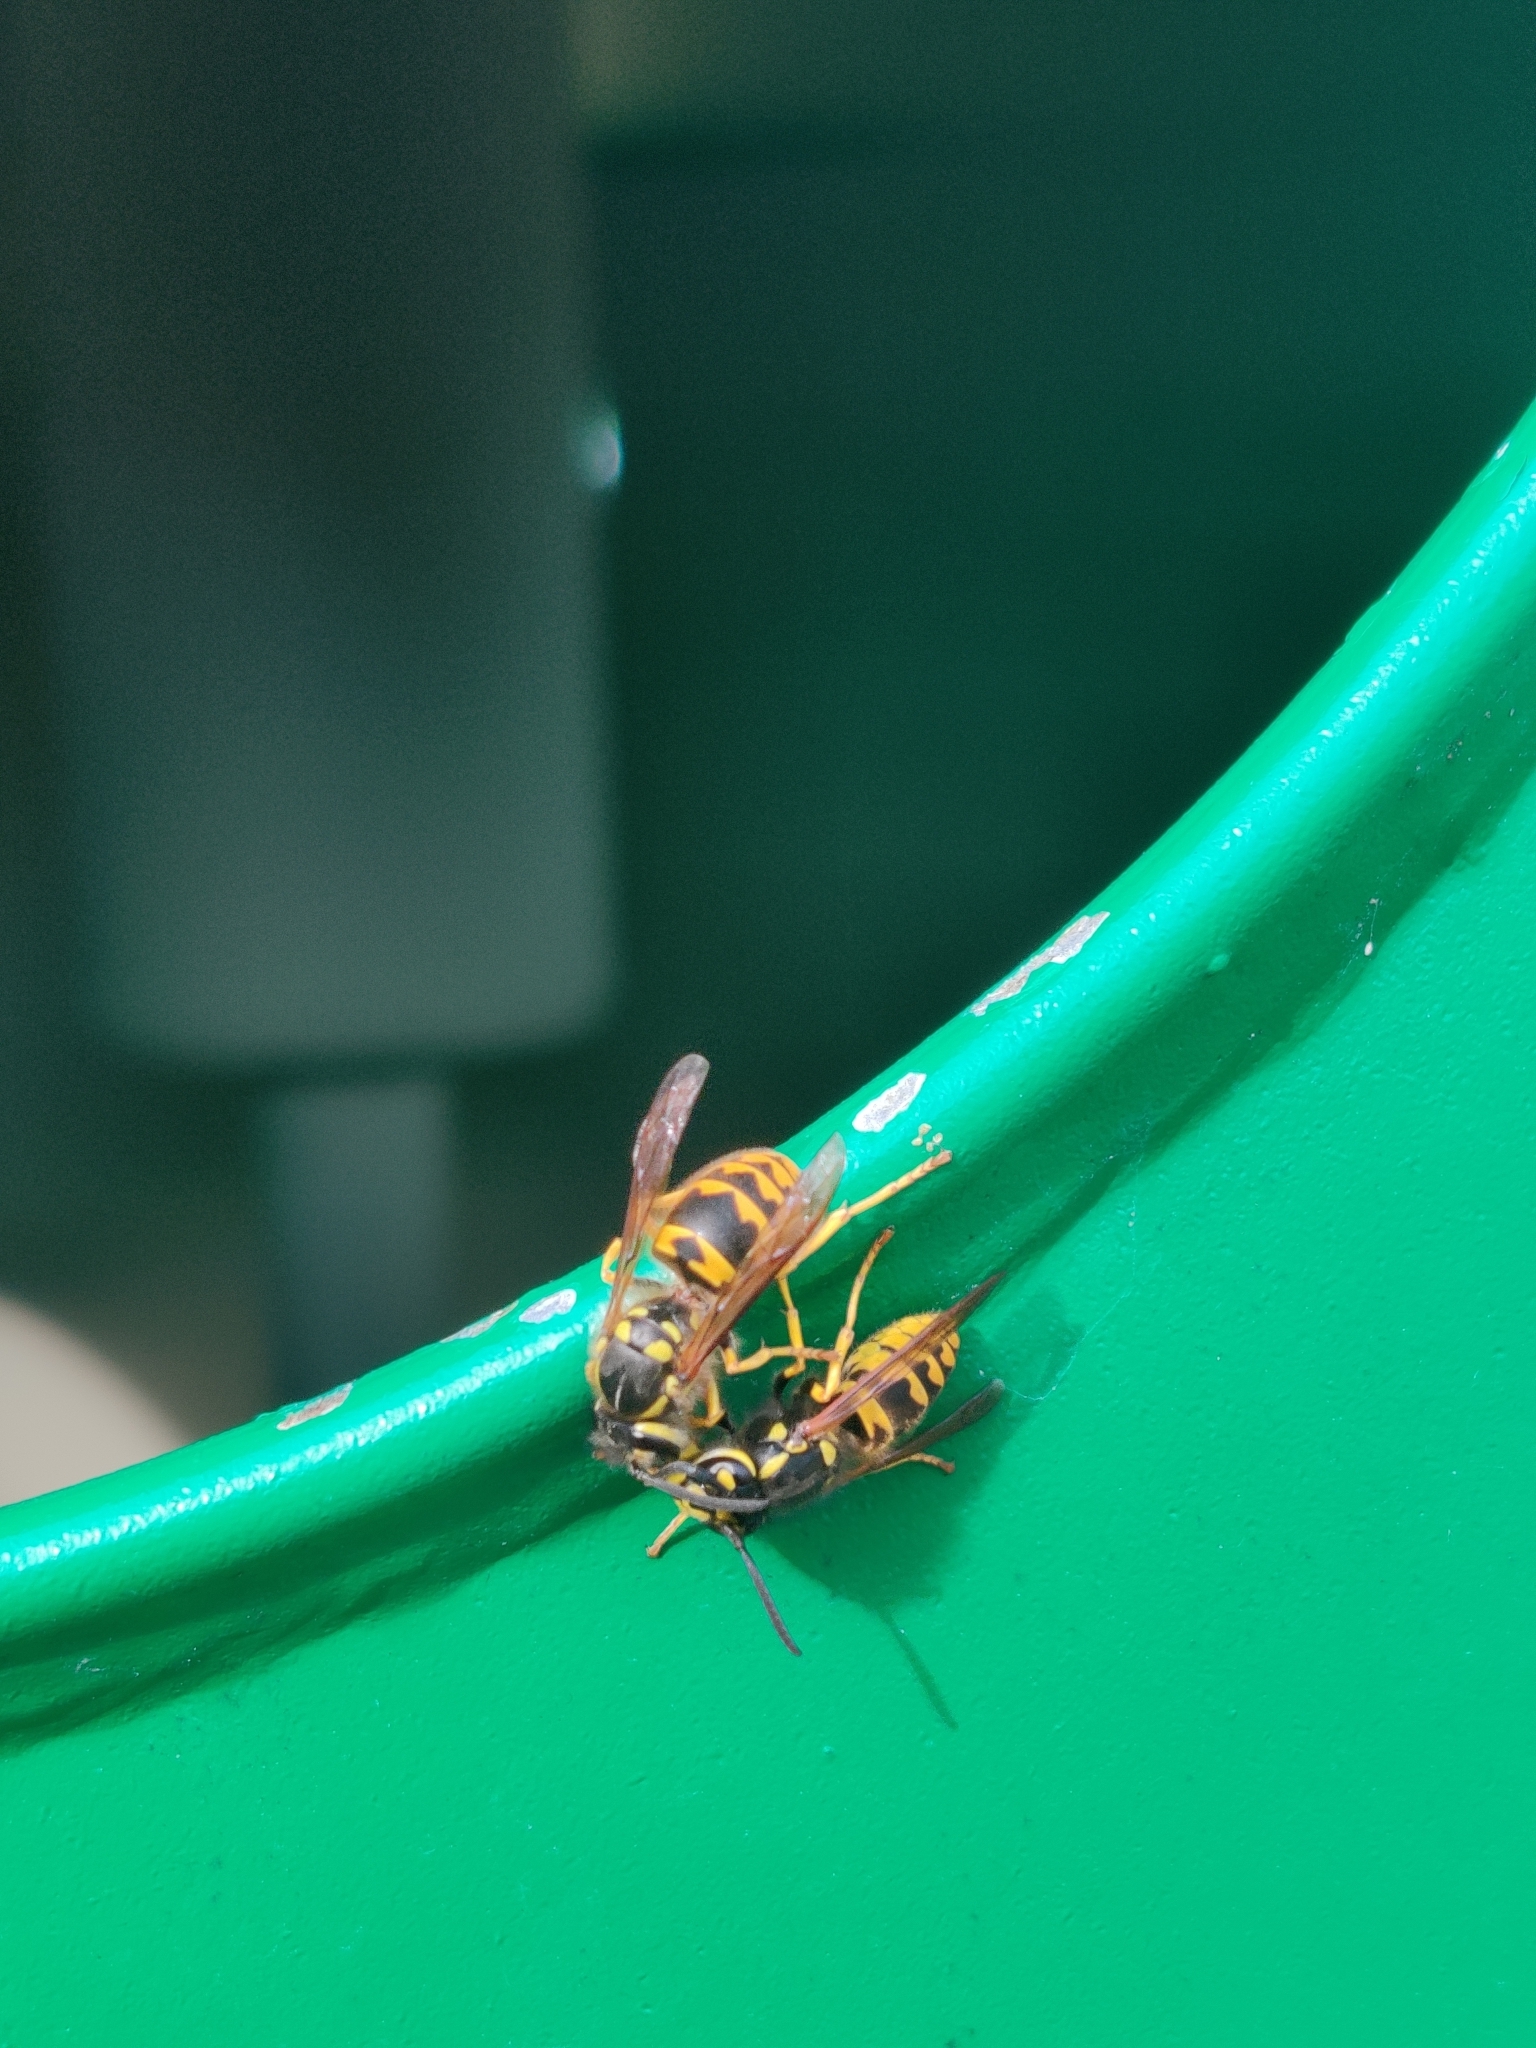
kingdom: Animalia
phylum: Arthropoda
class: Insecta
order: Hymenoptera
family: Vespidae
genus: Vespula
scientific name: Vespula germanica
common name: German wasp
